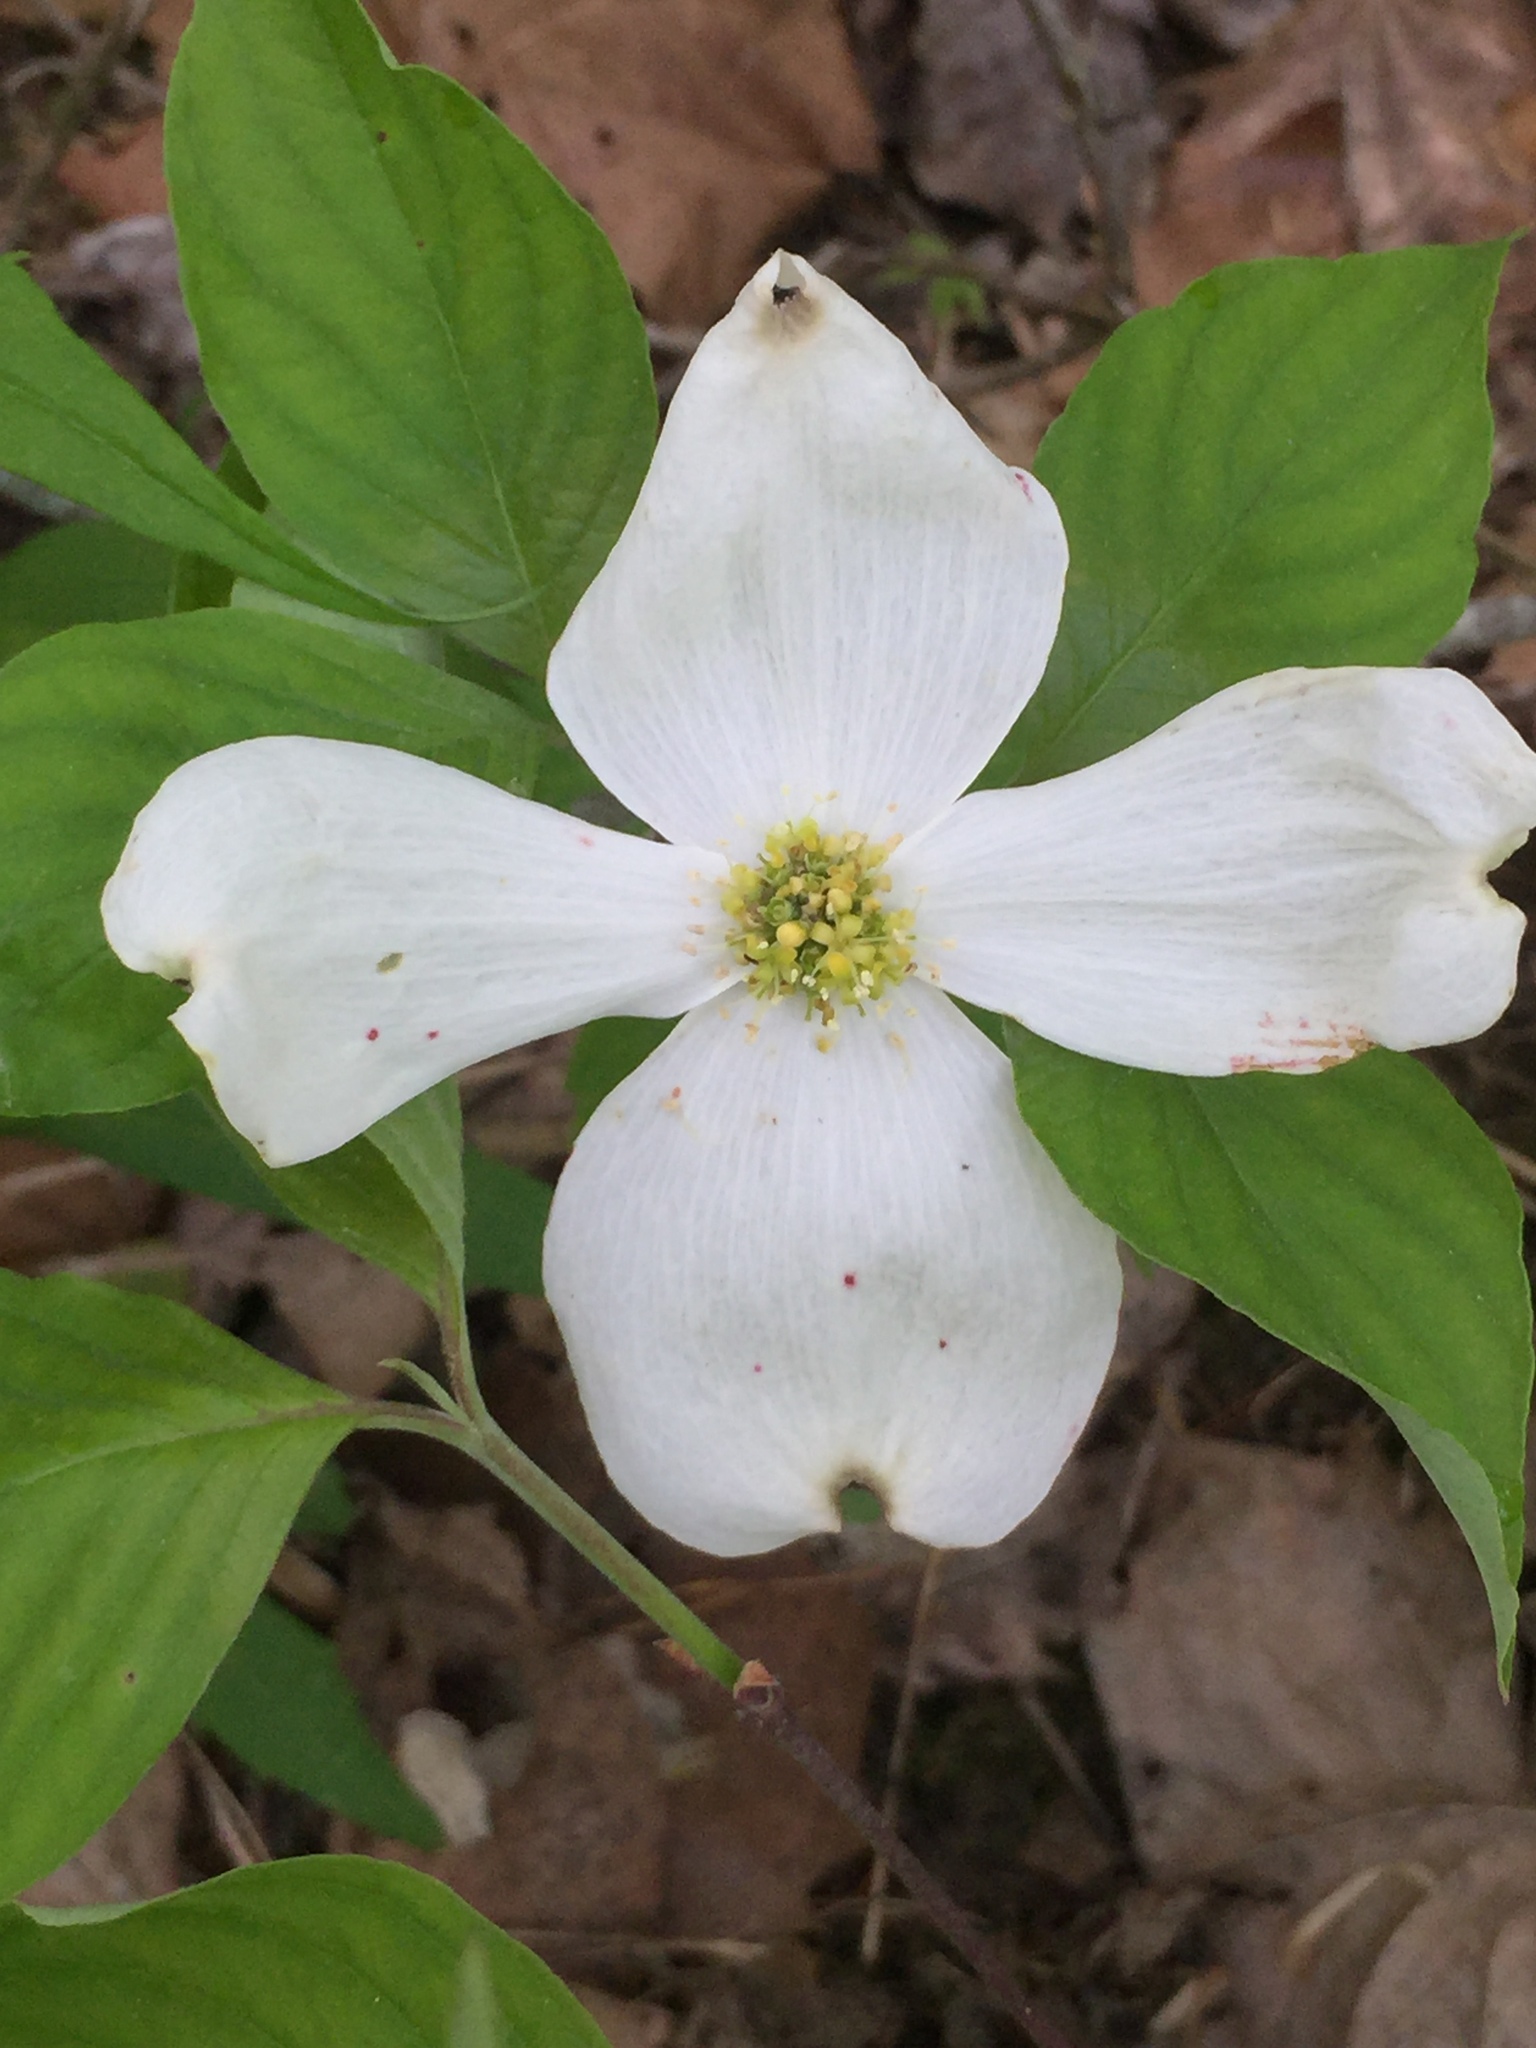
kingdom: Plantae
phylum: Tracheophyta
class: Magnoliopsida
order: Cornales
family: Cornaceae
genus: Cornus
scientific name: Cornus florida
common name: Flowering dogwood
